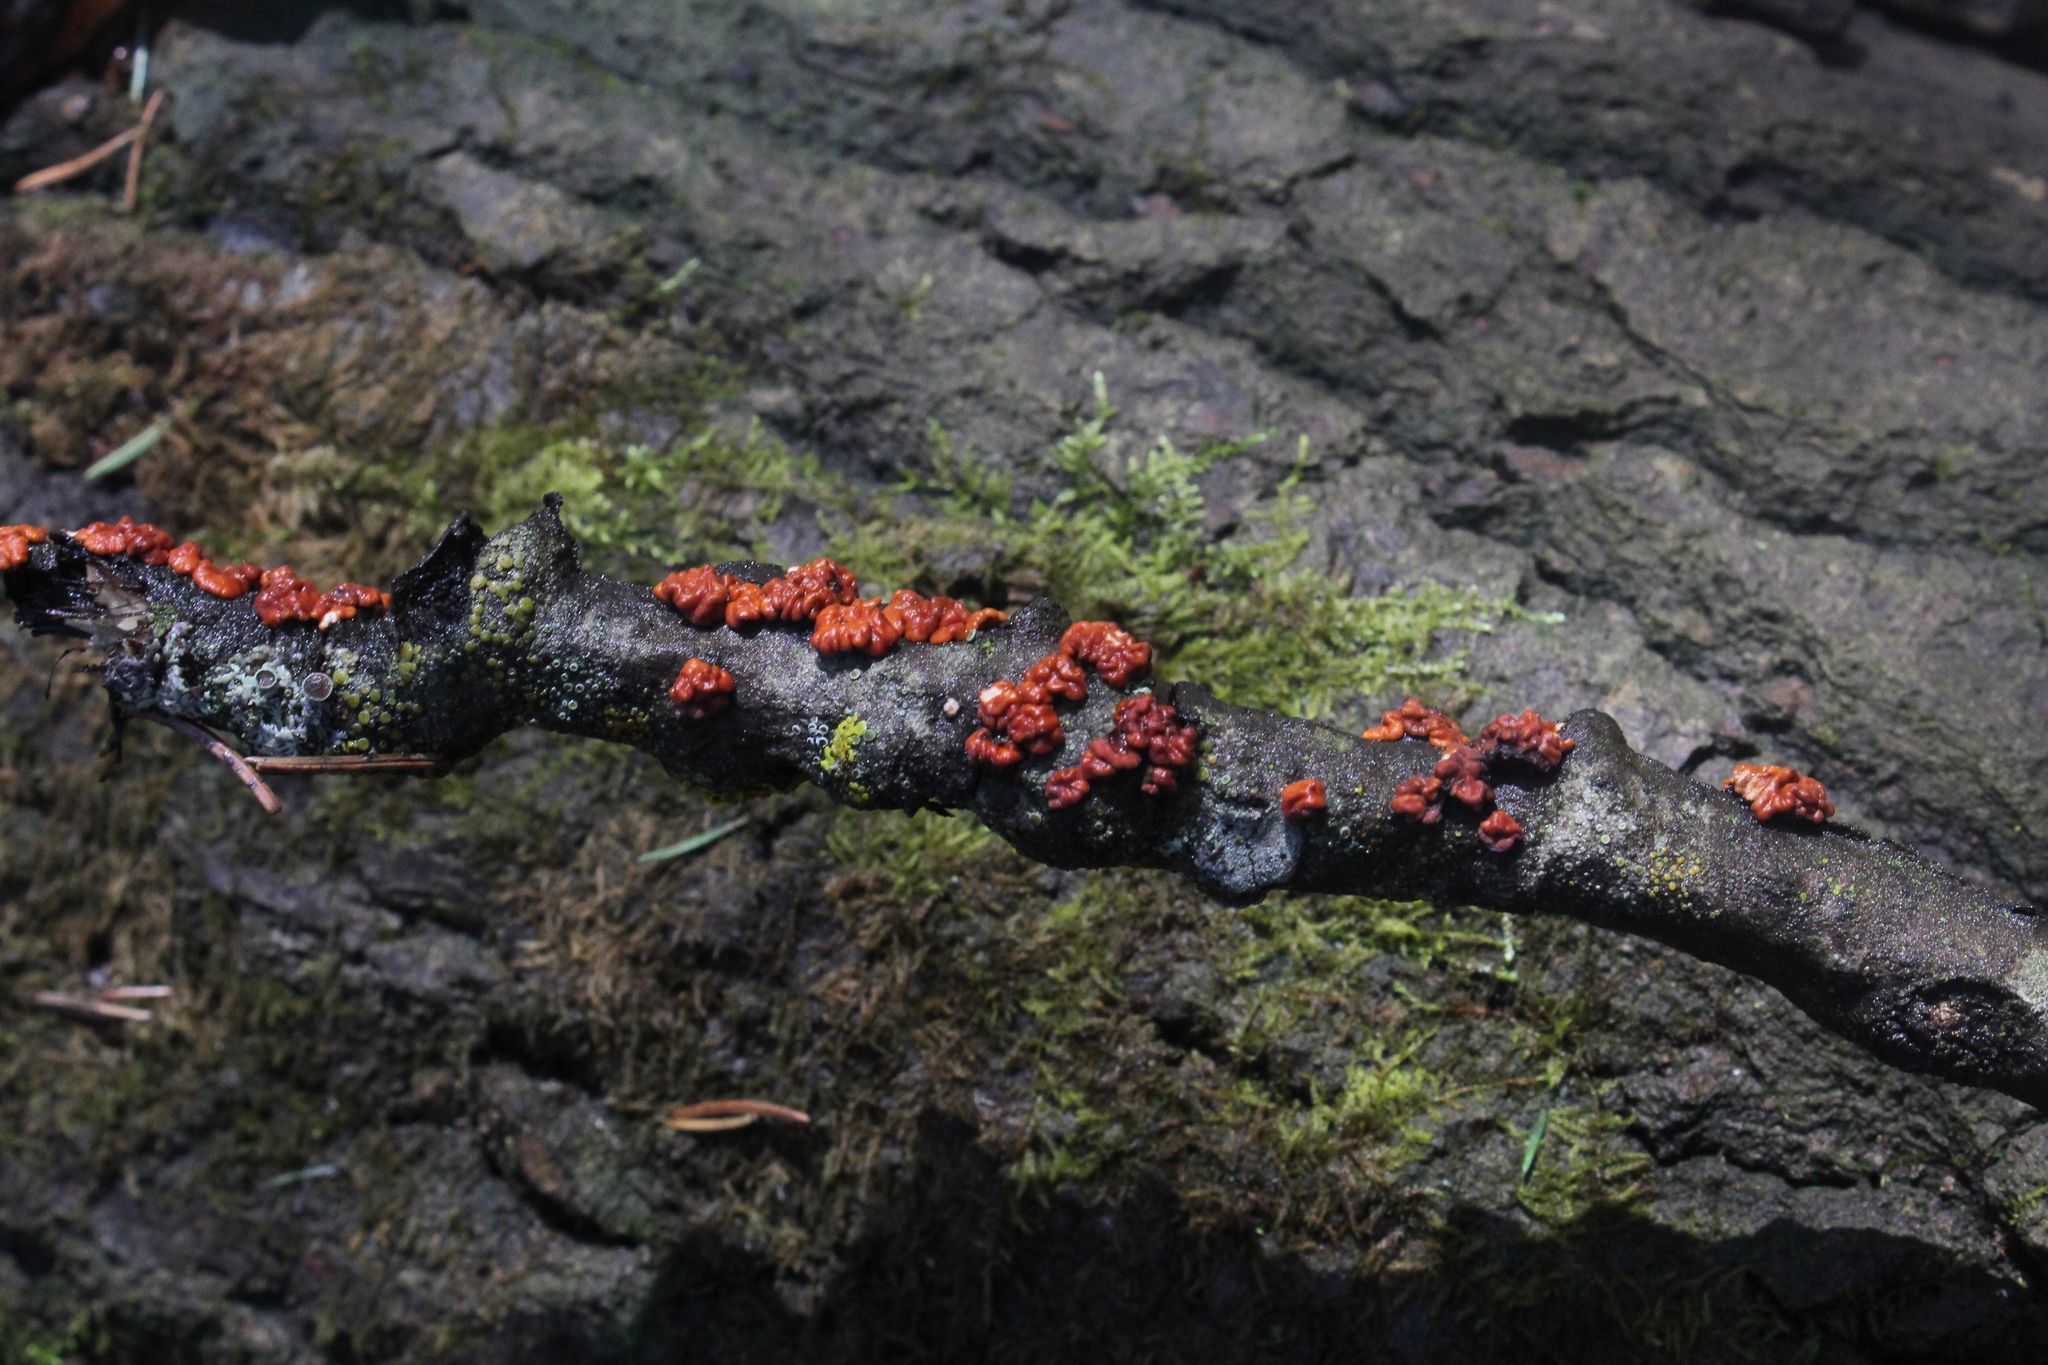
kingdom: Fungi
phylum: Basidiomycota
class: Agaricomycetes
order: Russulales
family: Peniophoraceae
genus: Peniophora
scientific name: Peniophora rufa
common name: Red tree brain fungus
